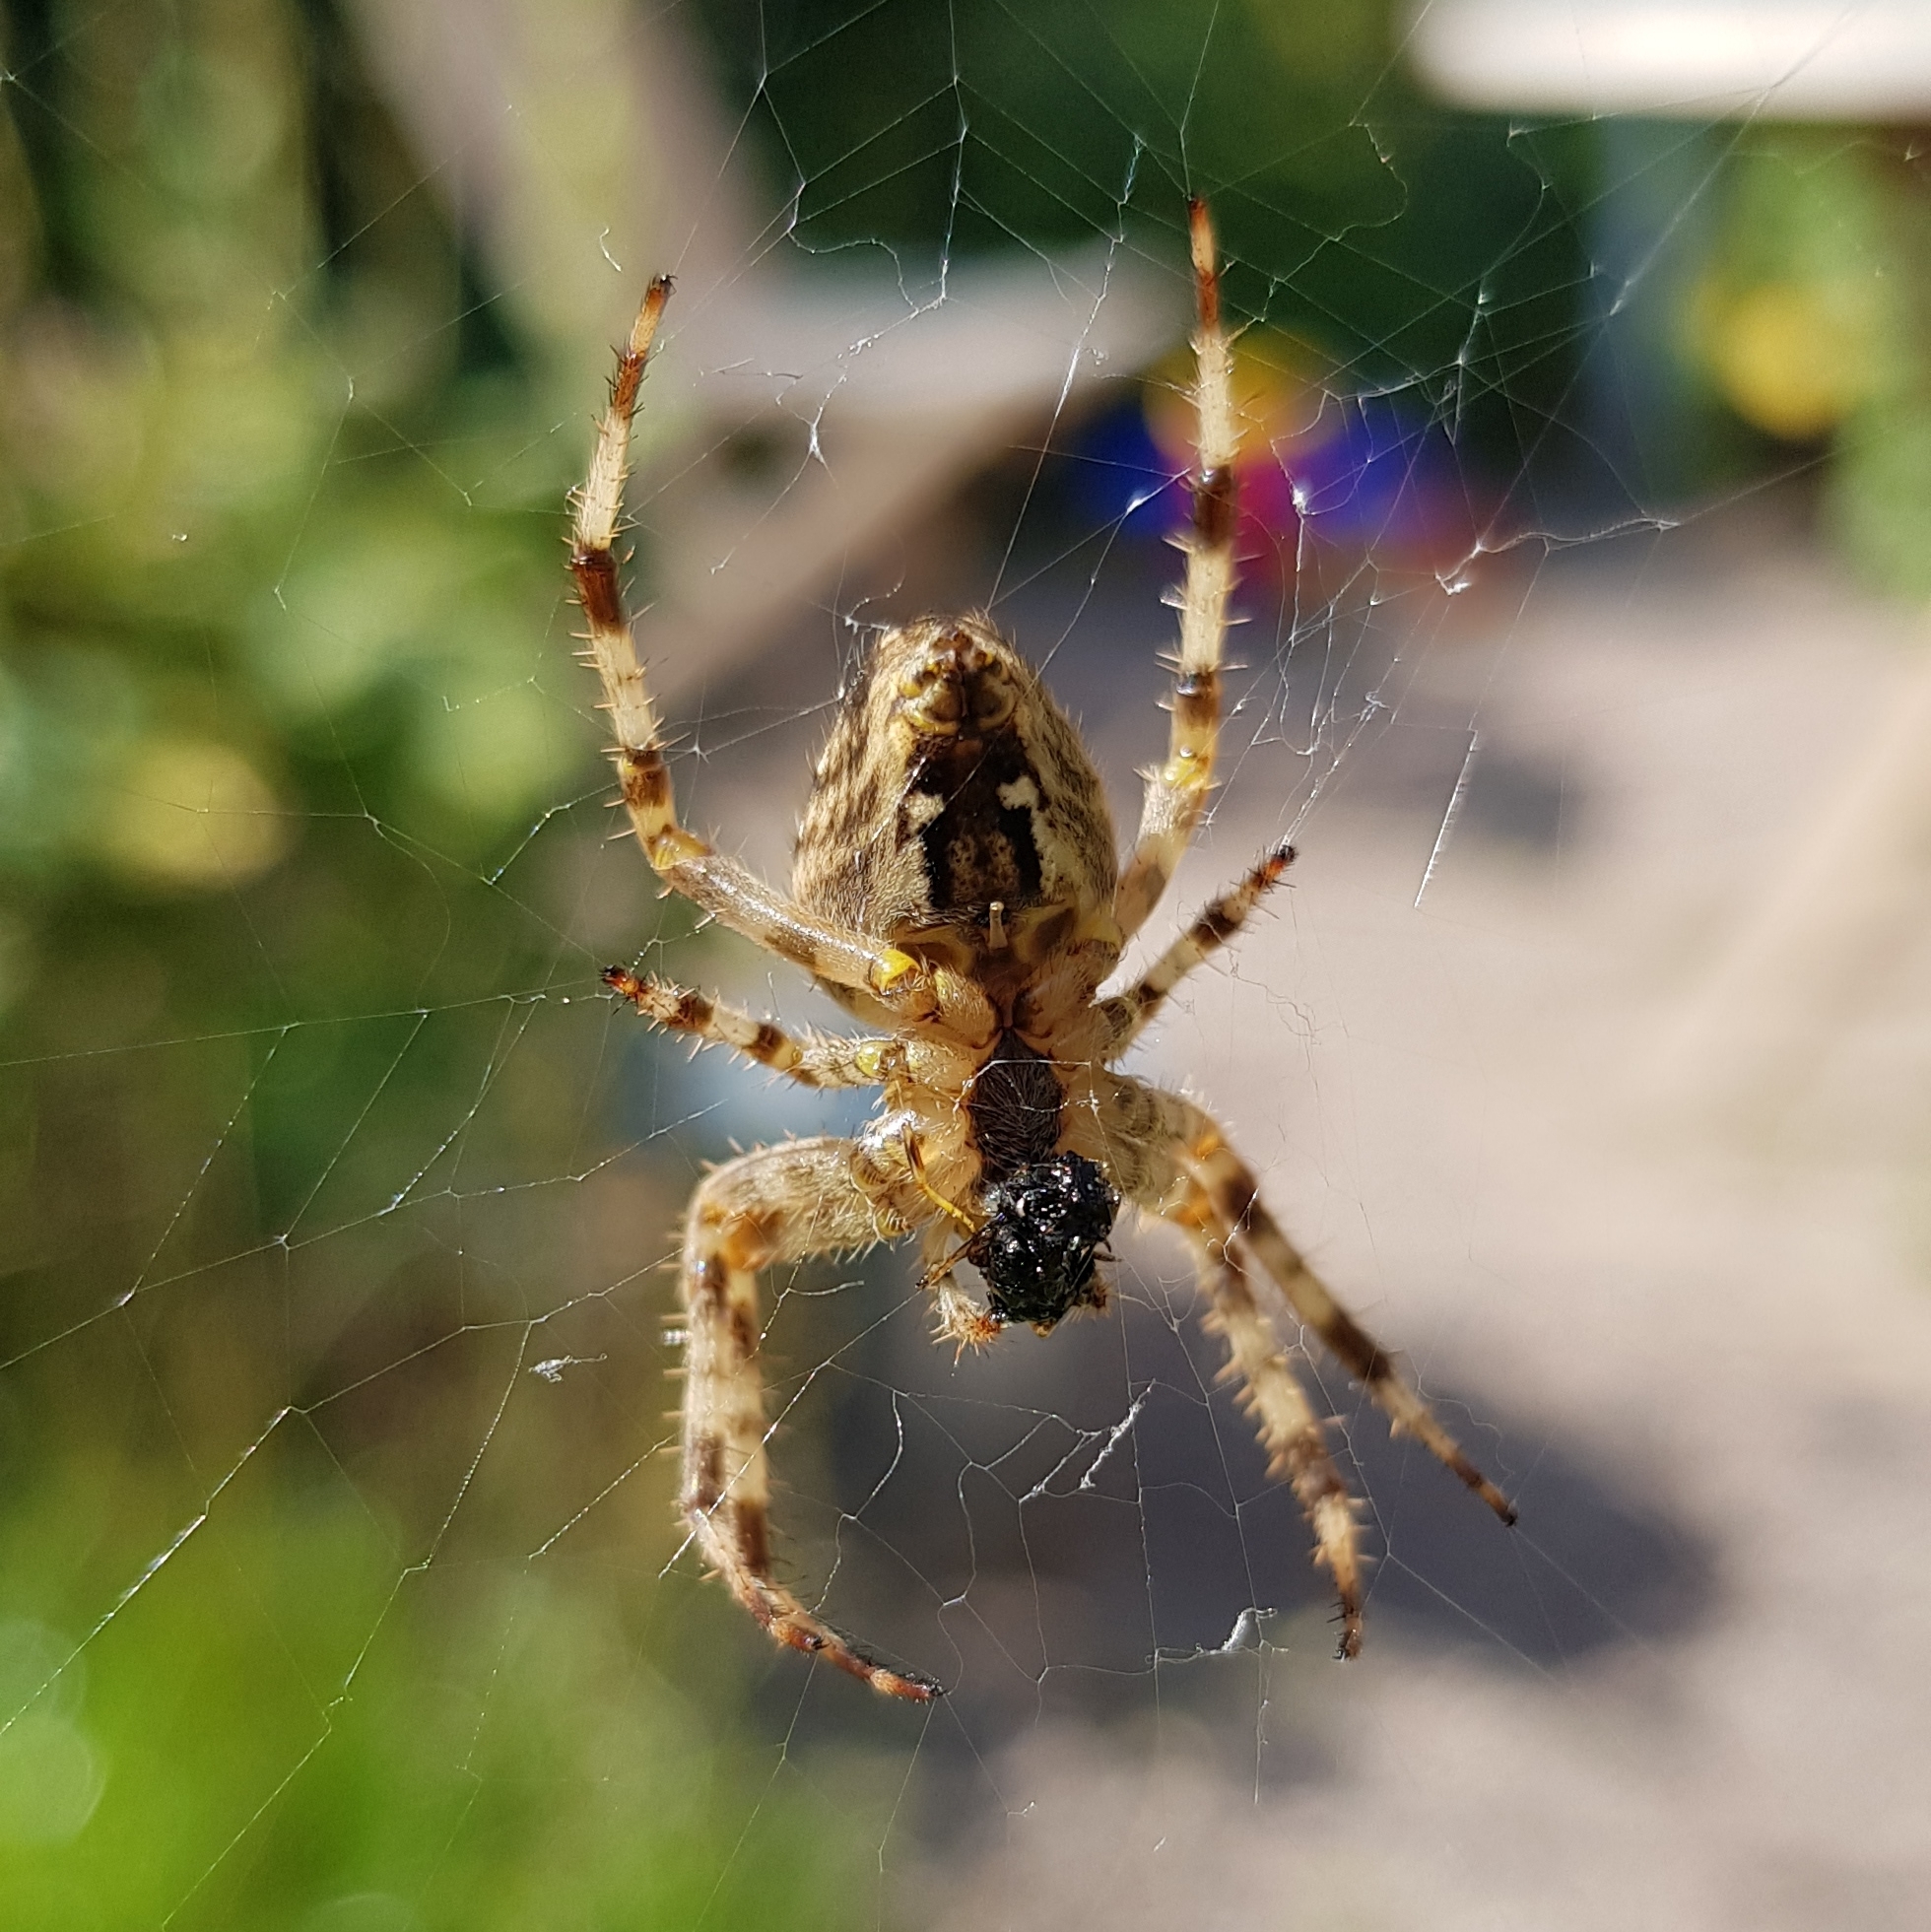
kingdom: Animalia
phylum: Arthropoda
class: Arachnida
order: Araneae
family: Araneidae
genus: Araneus
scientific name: Araneus diadematus
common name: Cross orbweaver
